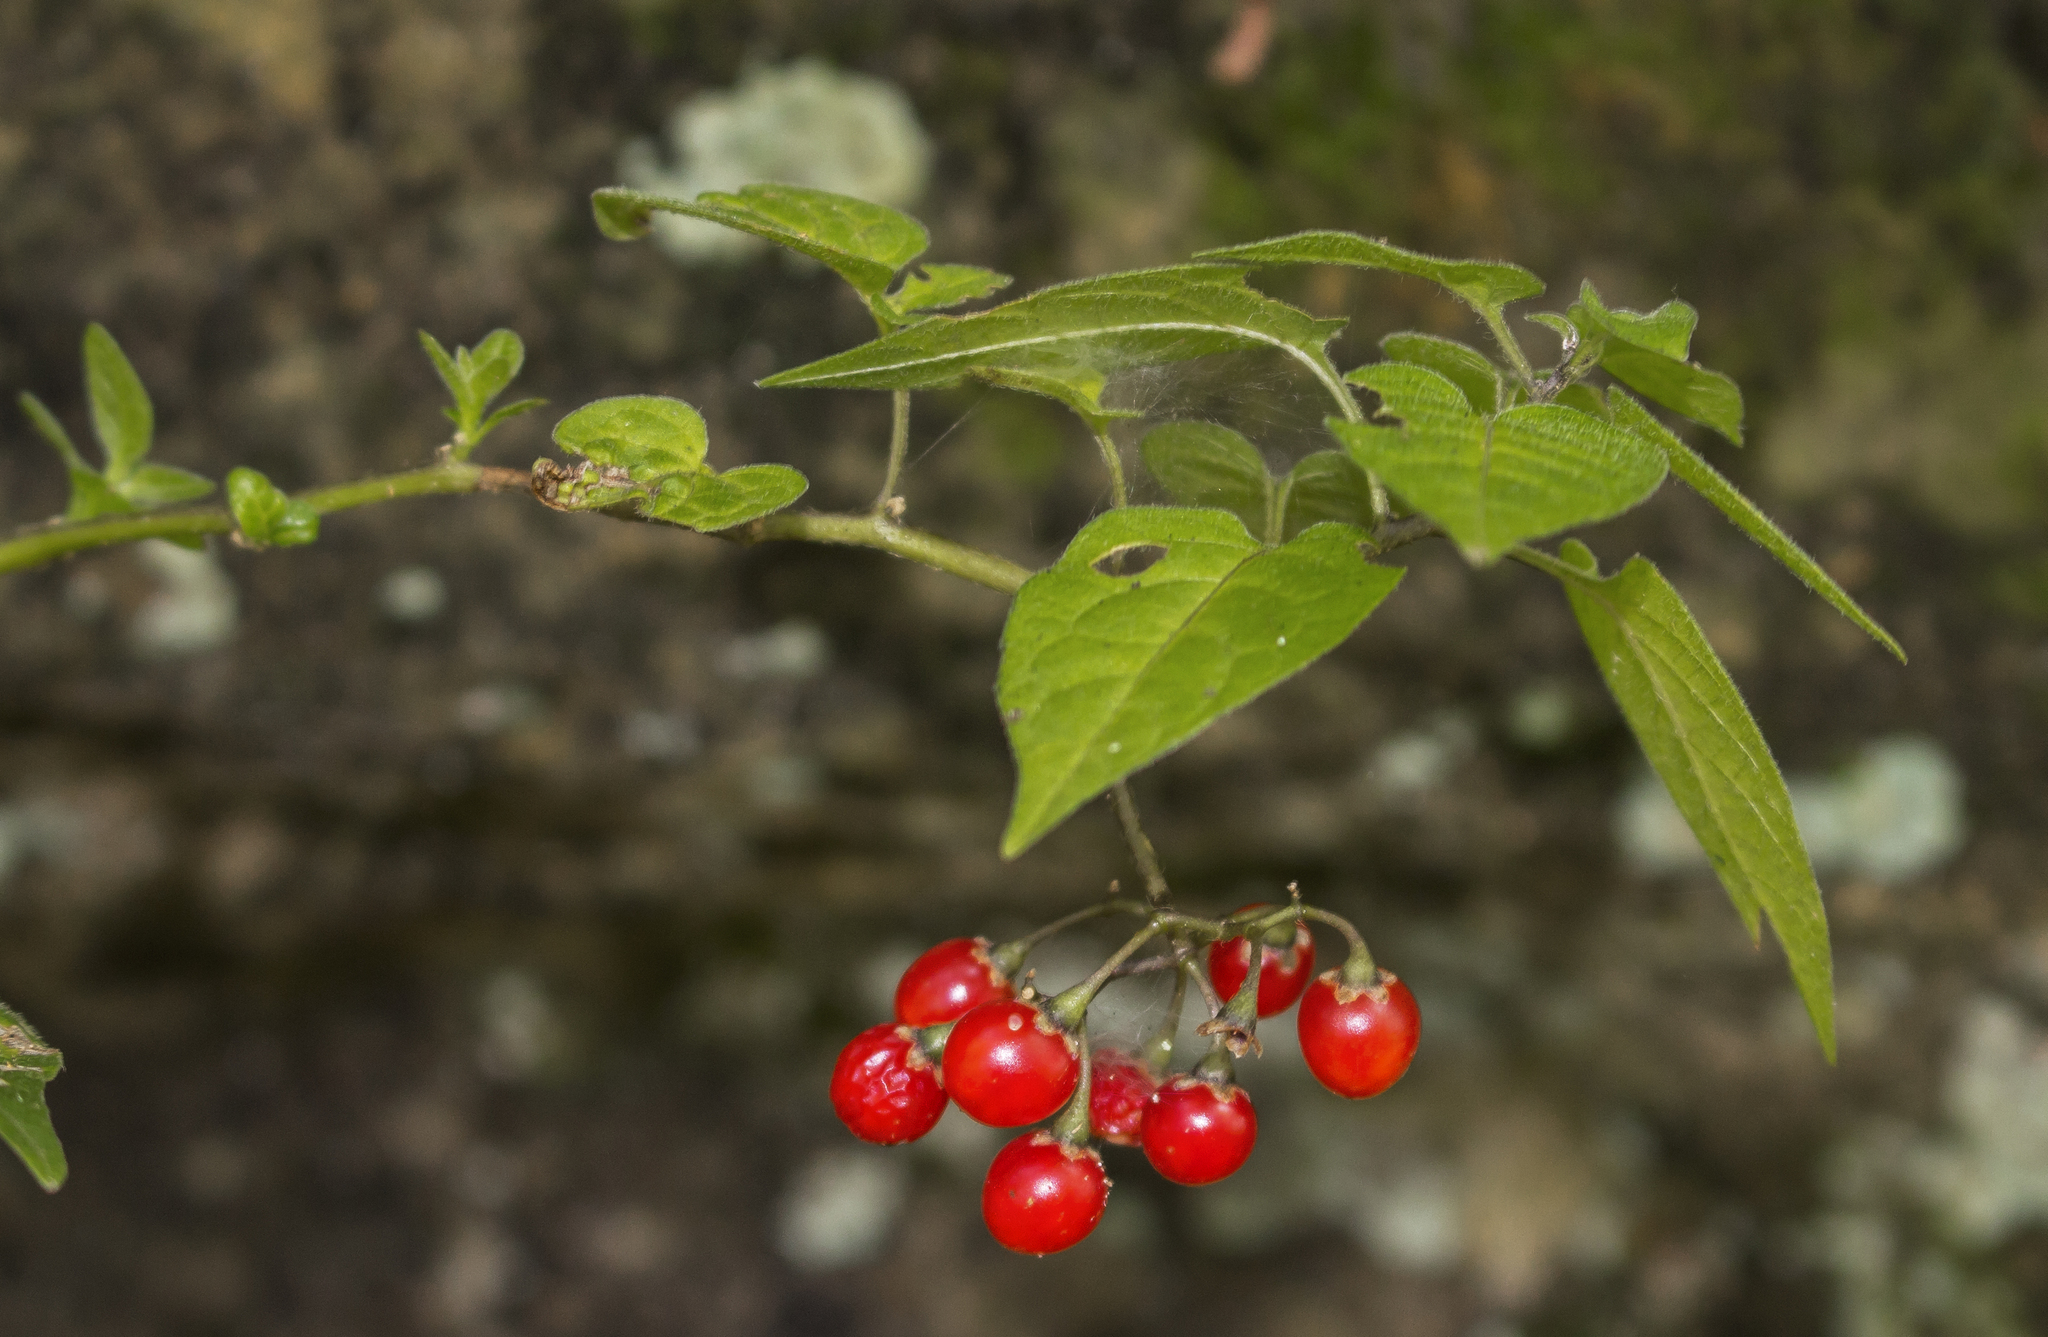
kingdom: Plantae
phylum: Tracheophyta
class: Magnoliopsida
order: Solanales
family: Solanaceae
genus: Solanum
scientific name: Solanum dulcamara
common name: Climbing nightshade
